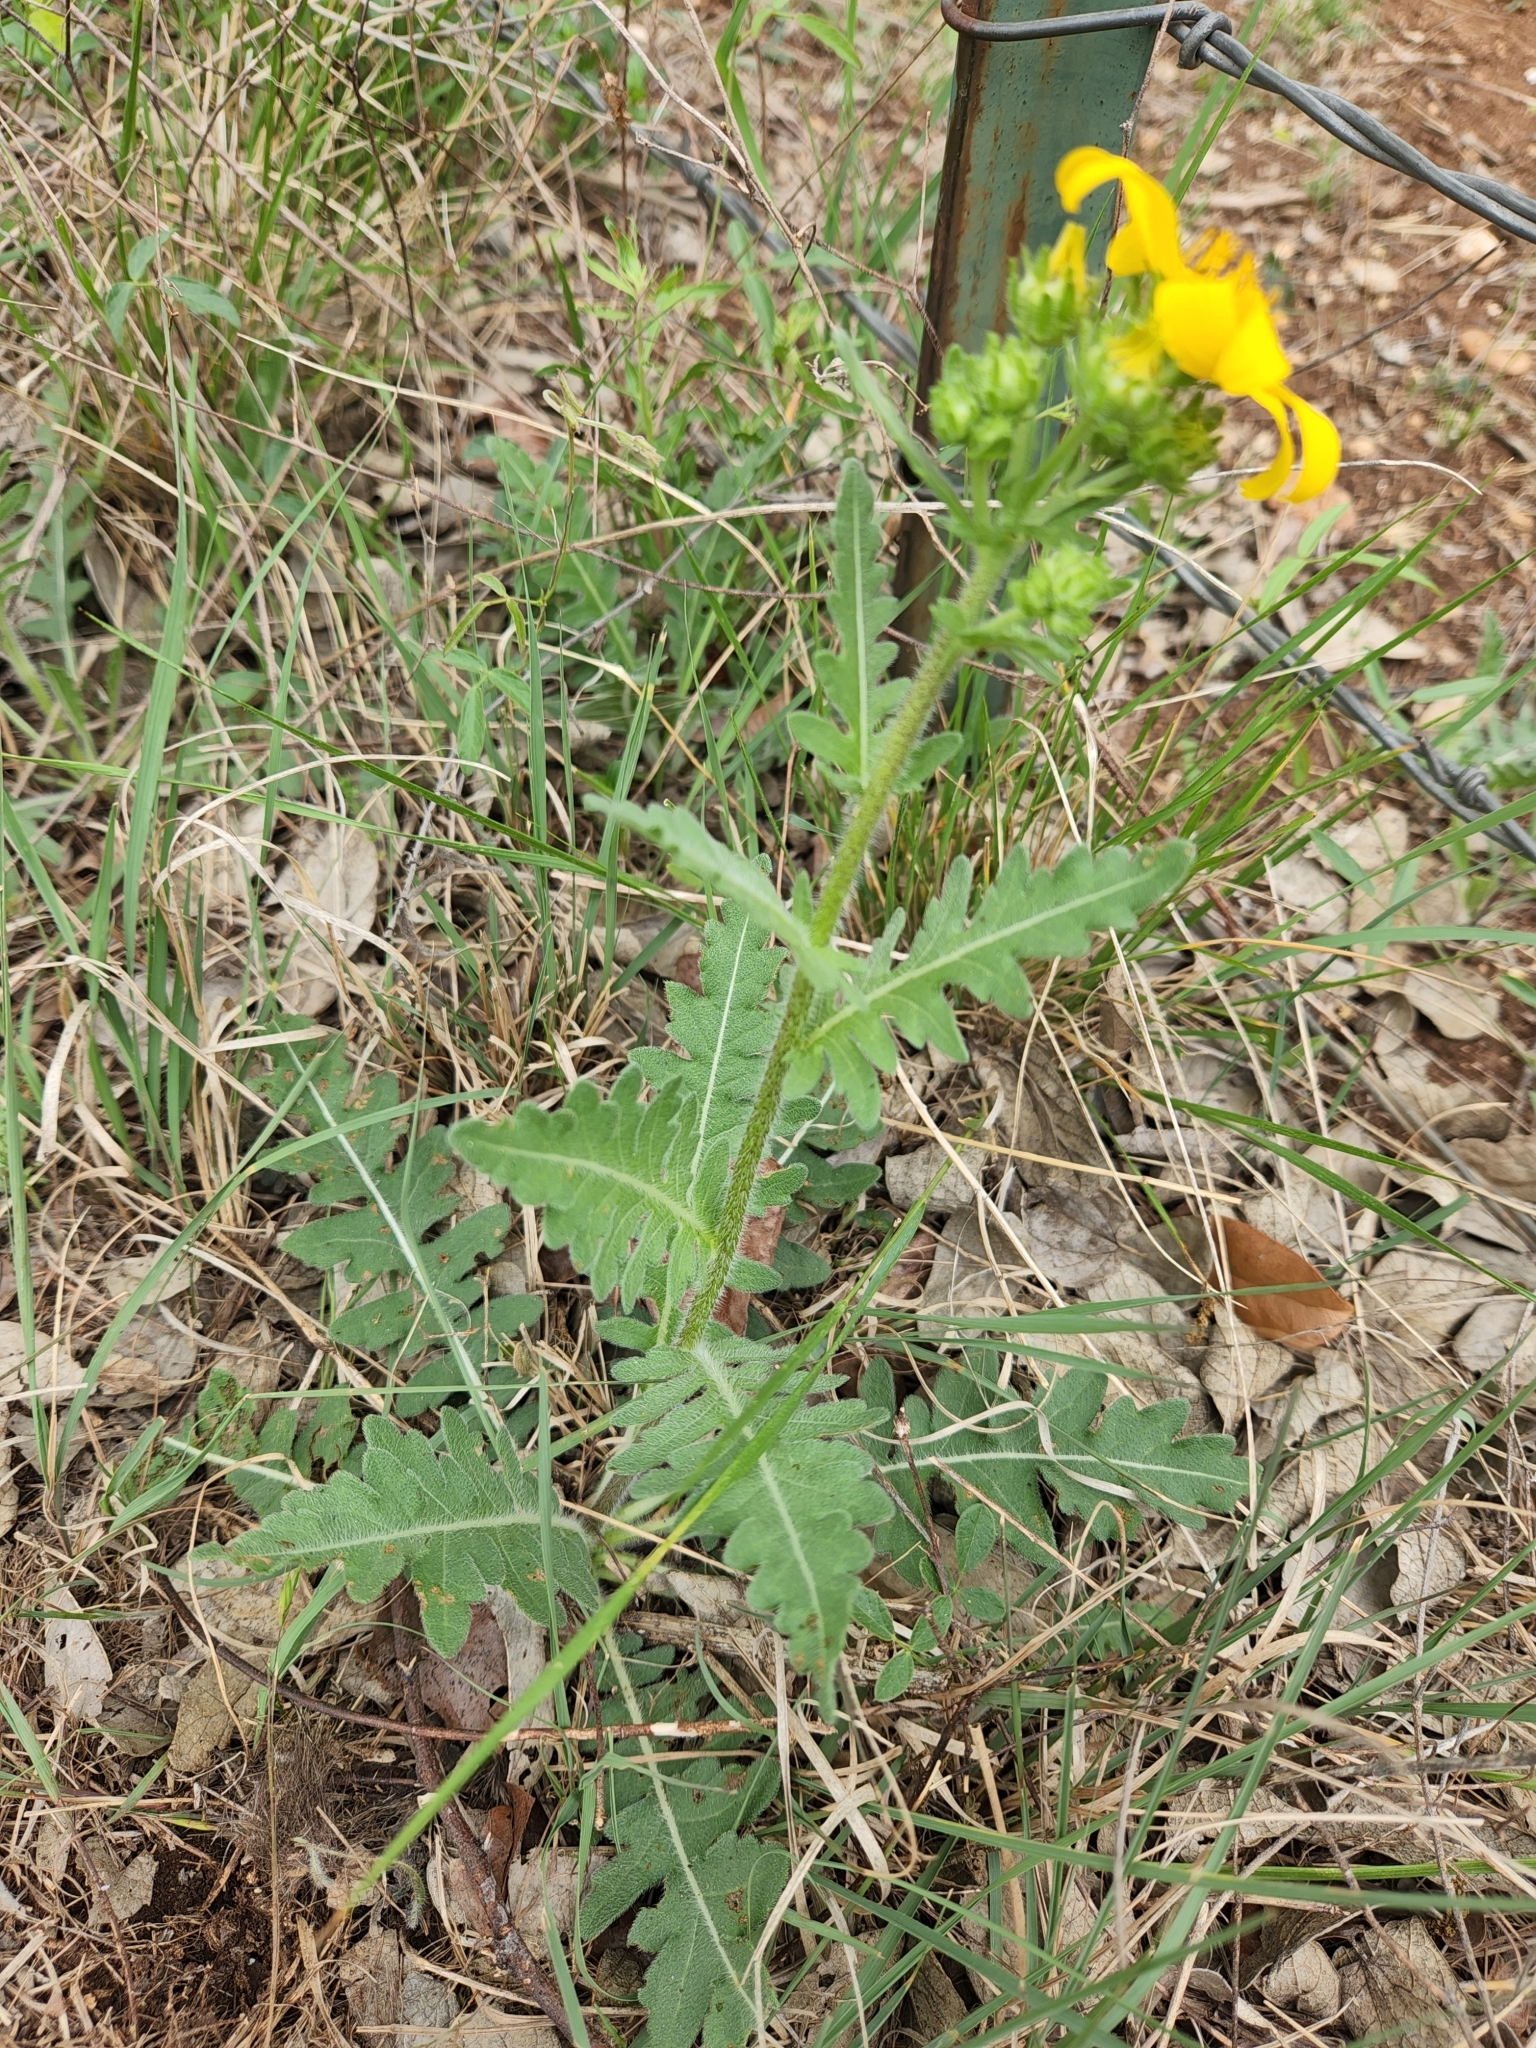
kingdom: Plantae
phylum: Tracheophyta
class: Magnoliopsida
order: Asterales
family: Asteraceae
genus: Engelmannia
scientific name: Engelmannia peristenia
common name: Engelmann's daisy
